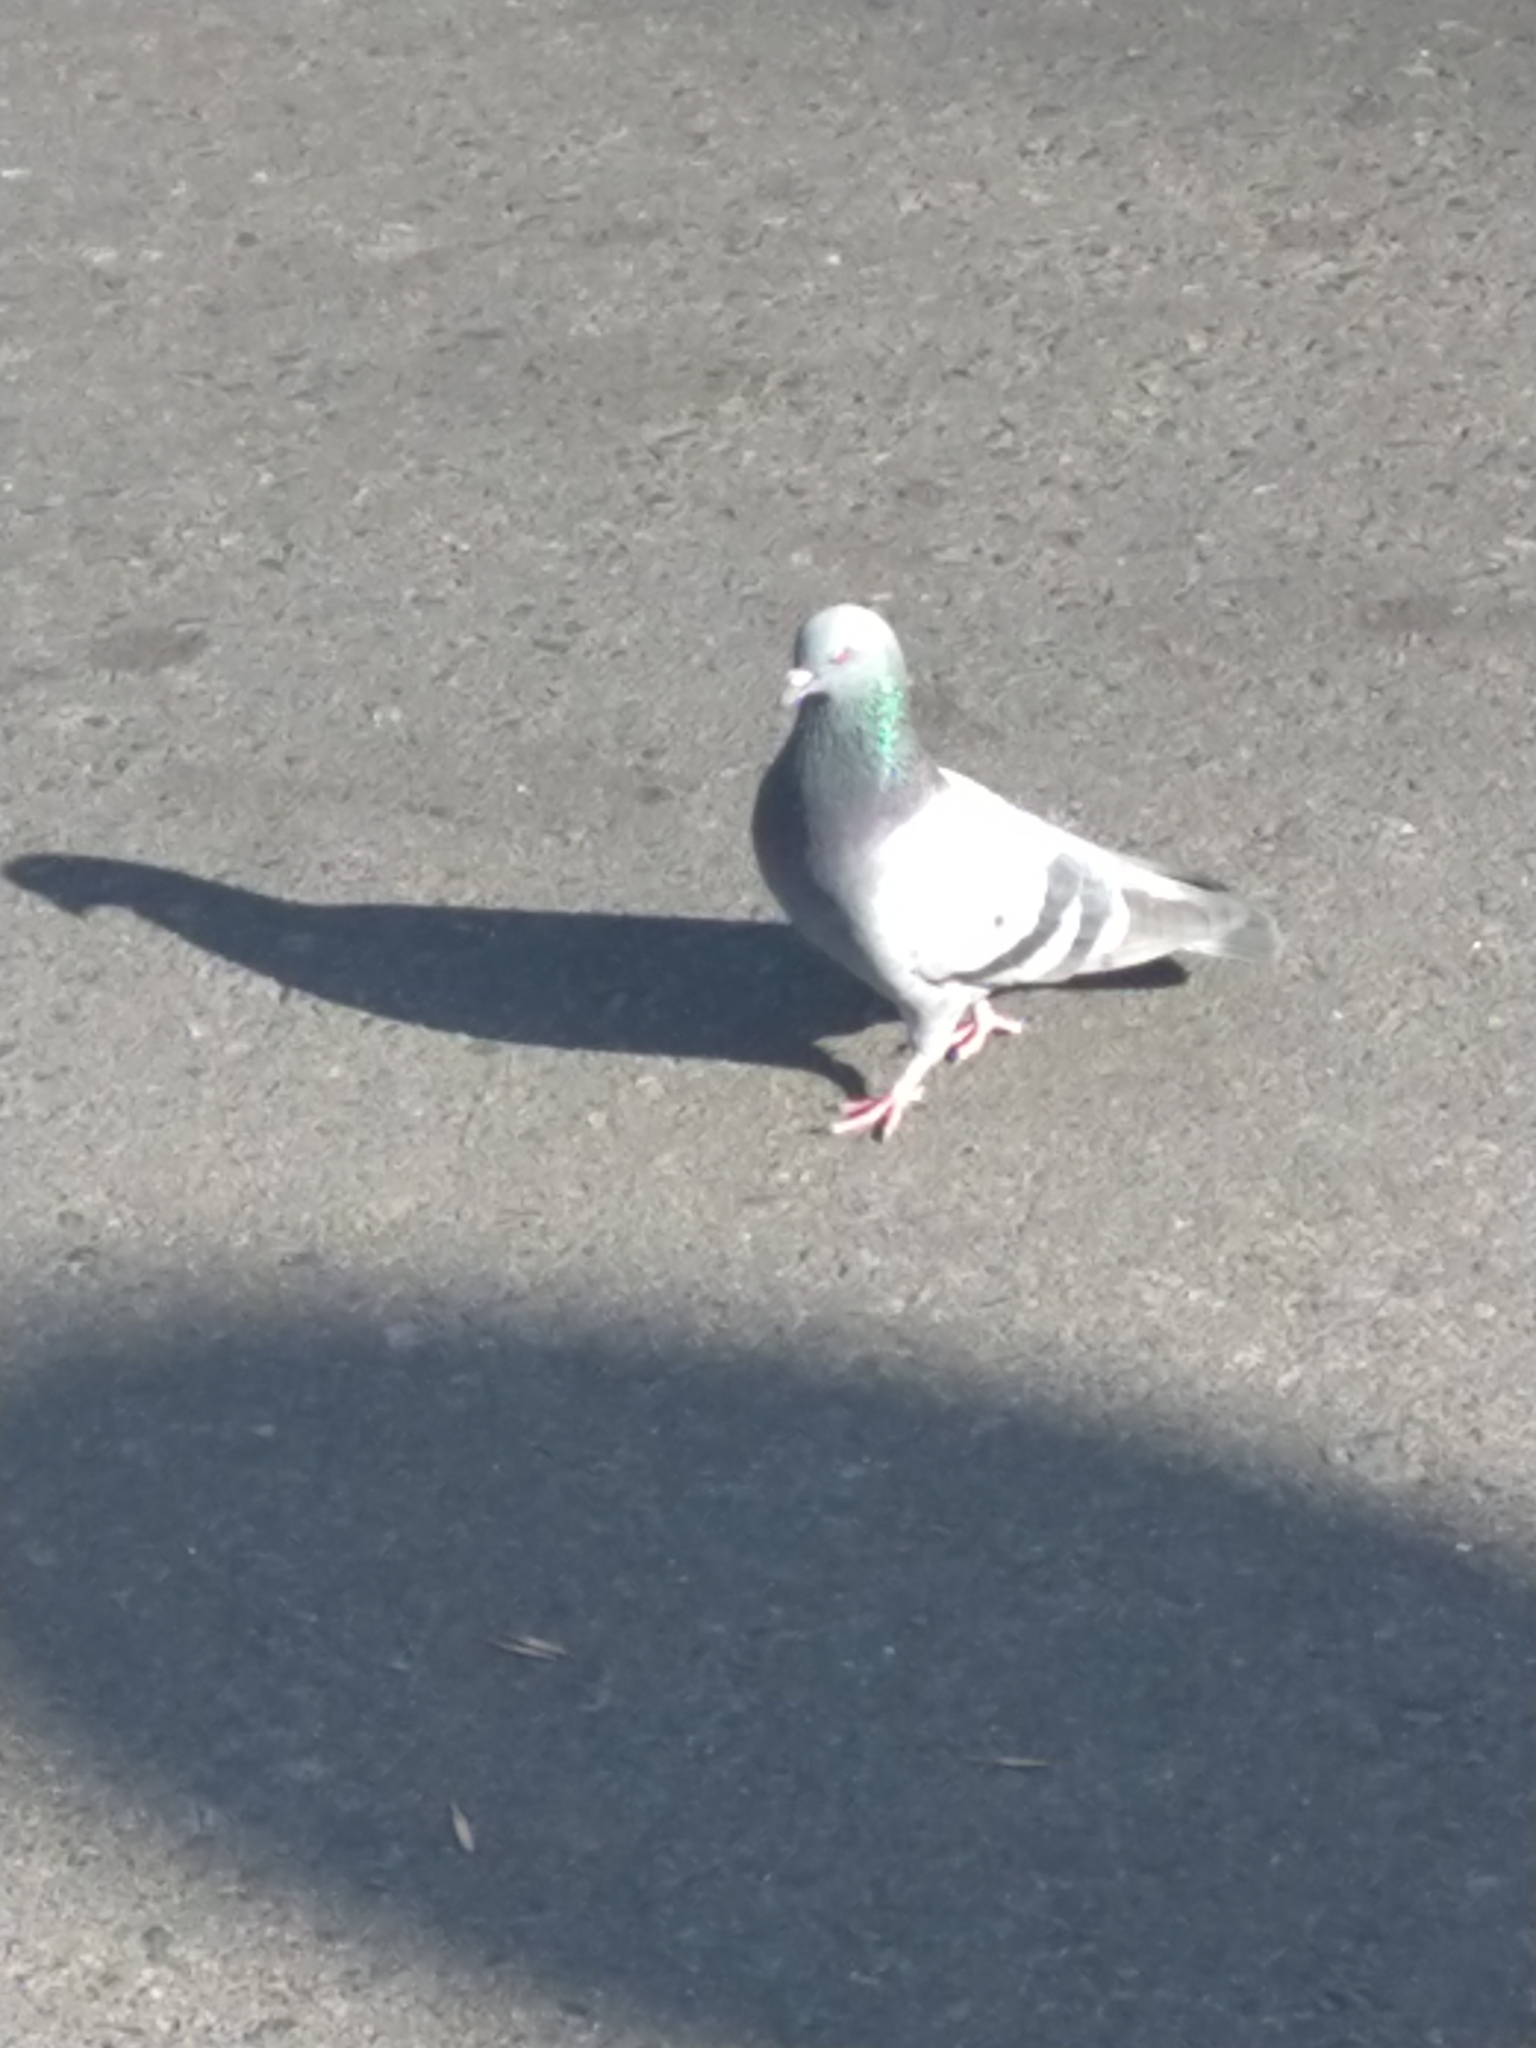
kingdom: Animalia
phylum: Chordata
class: Aves
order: Columbiformes
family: Columbidae
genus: Columba
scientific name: Columba livia
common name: Rock pigeon
